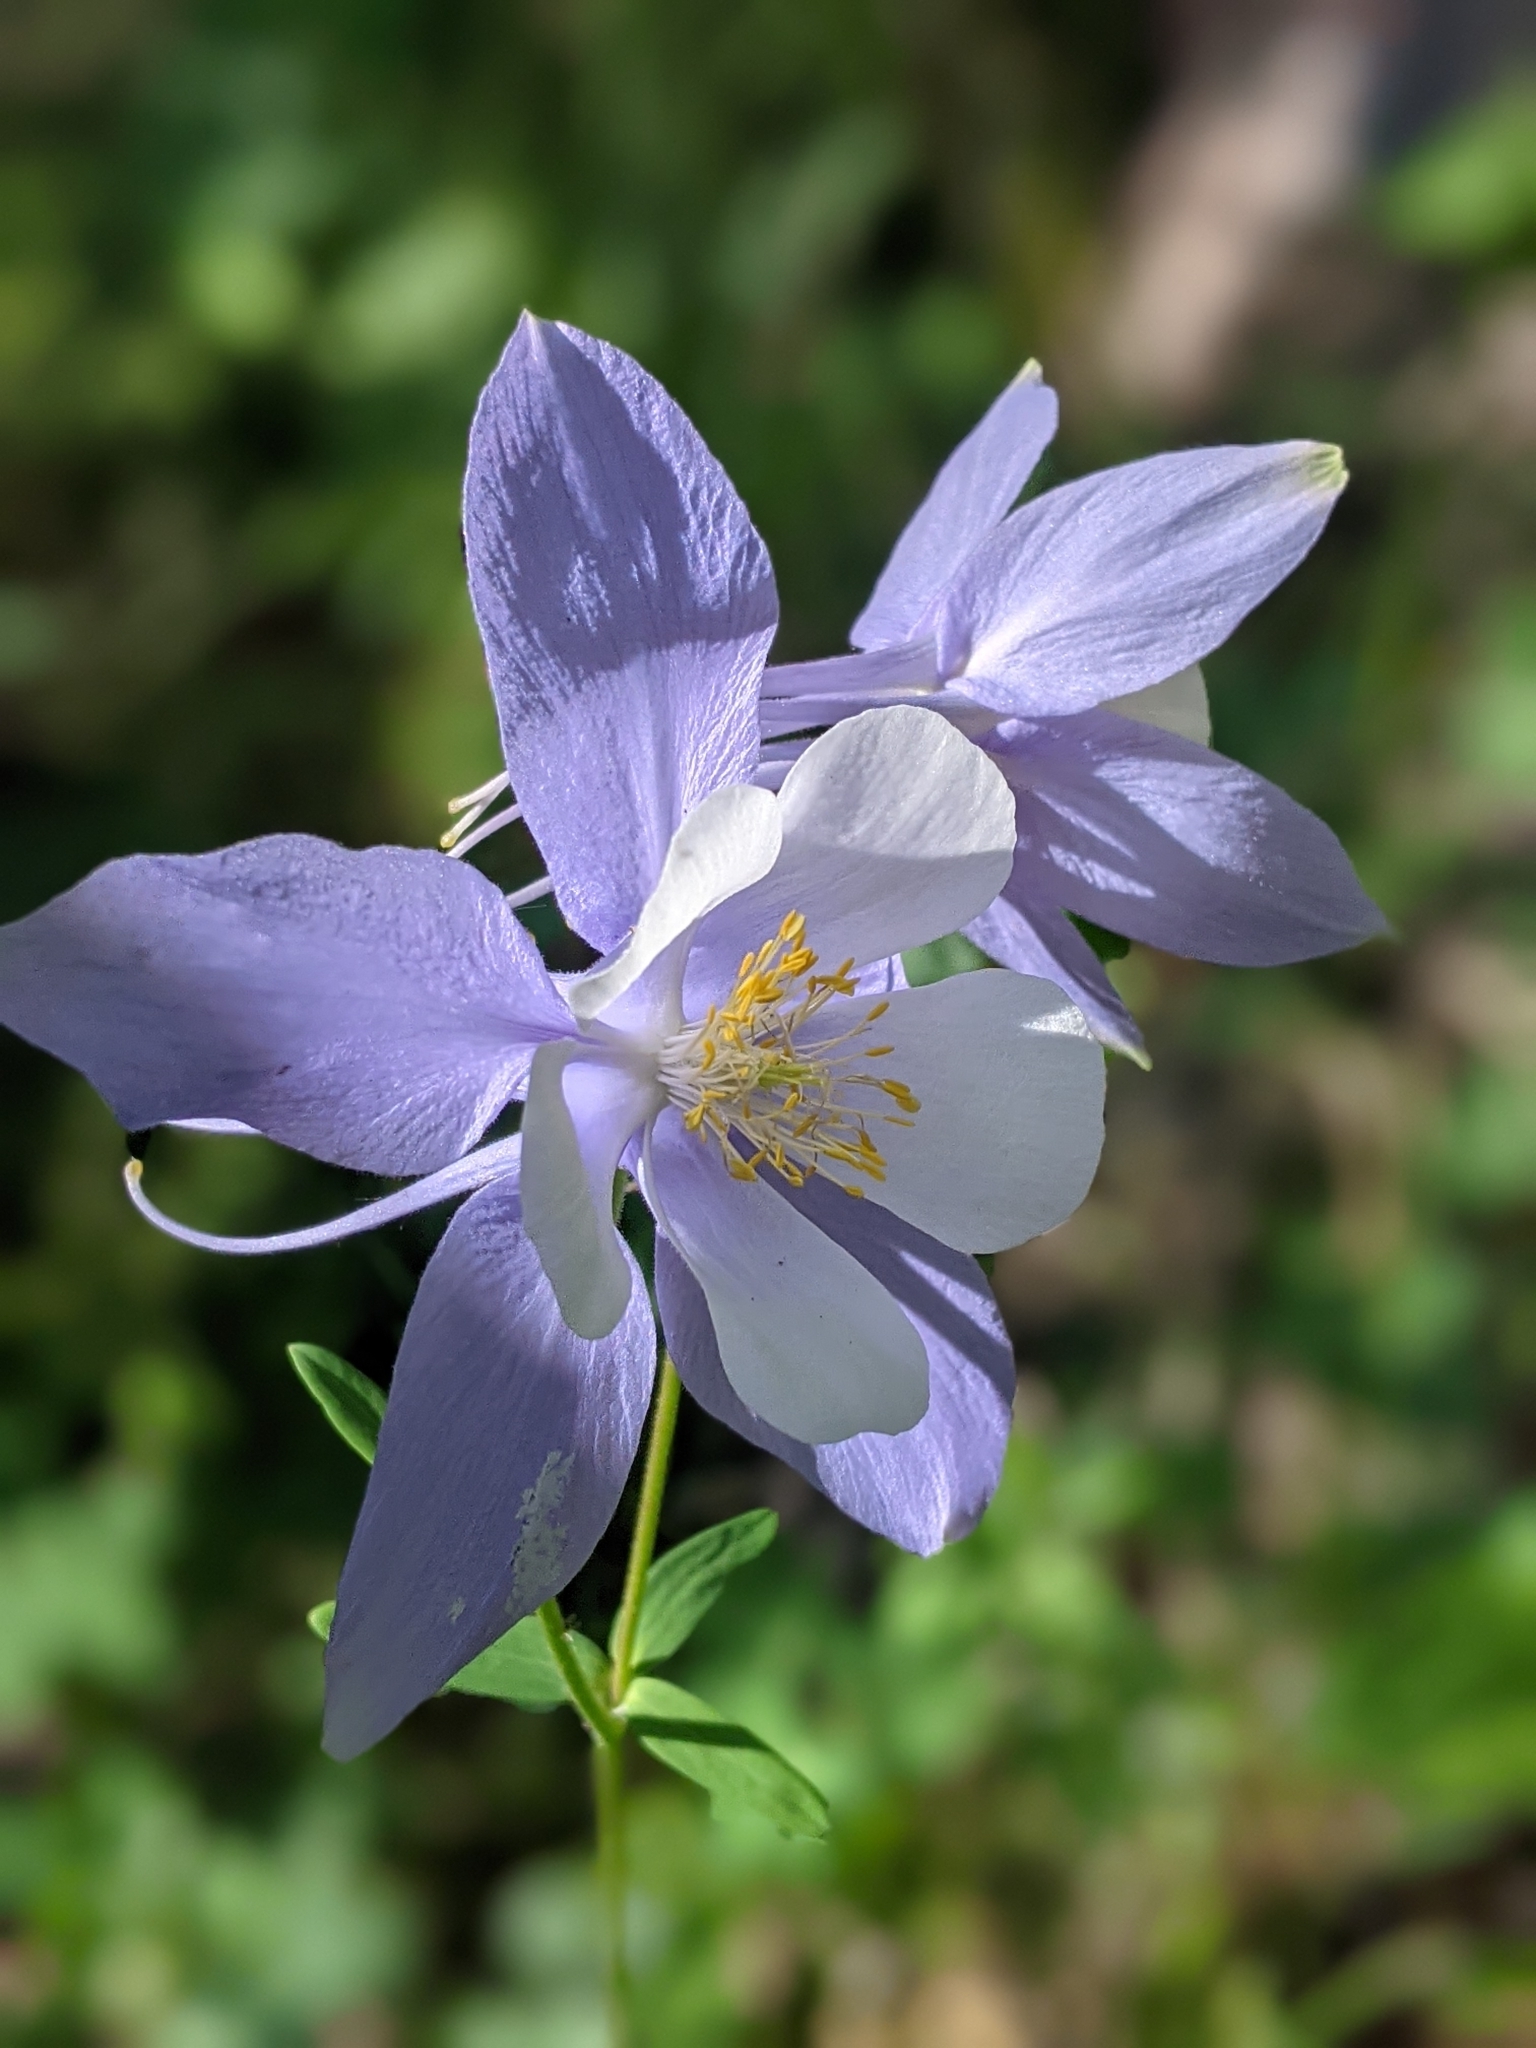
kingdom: Plantae
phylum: Tracheophyta
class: Magnoliopsida
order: Ranunculales
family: Ranunculaceae
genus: Aquilegia
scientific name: Aquilegia coerulea
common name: Rocky mountain columbine
